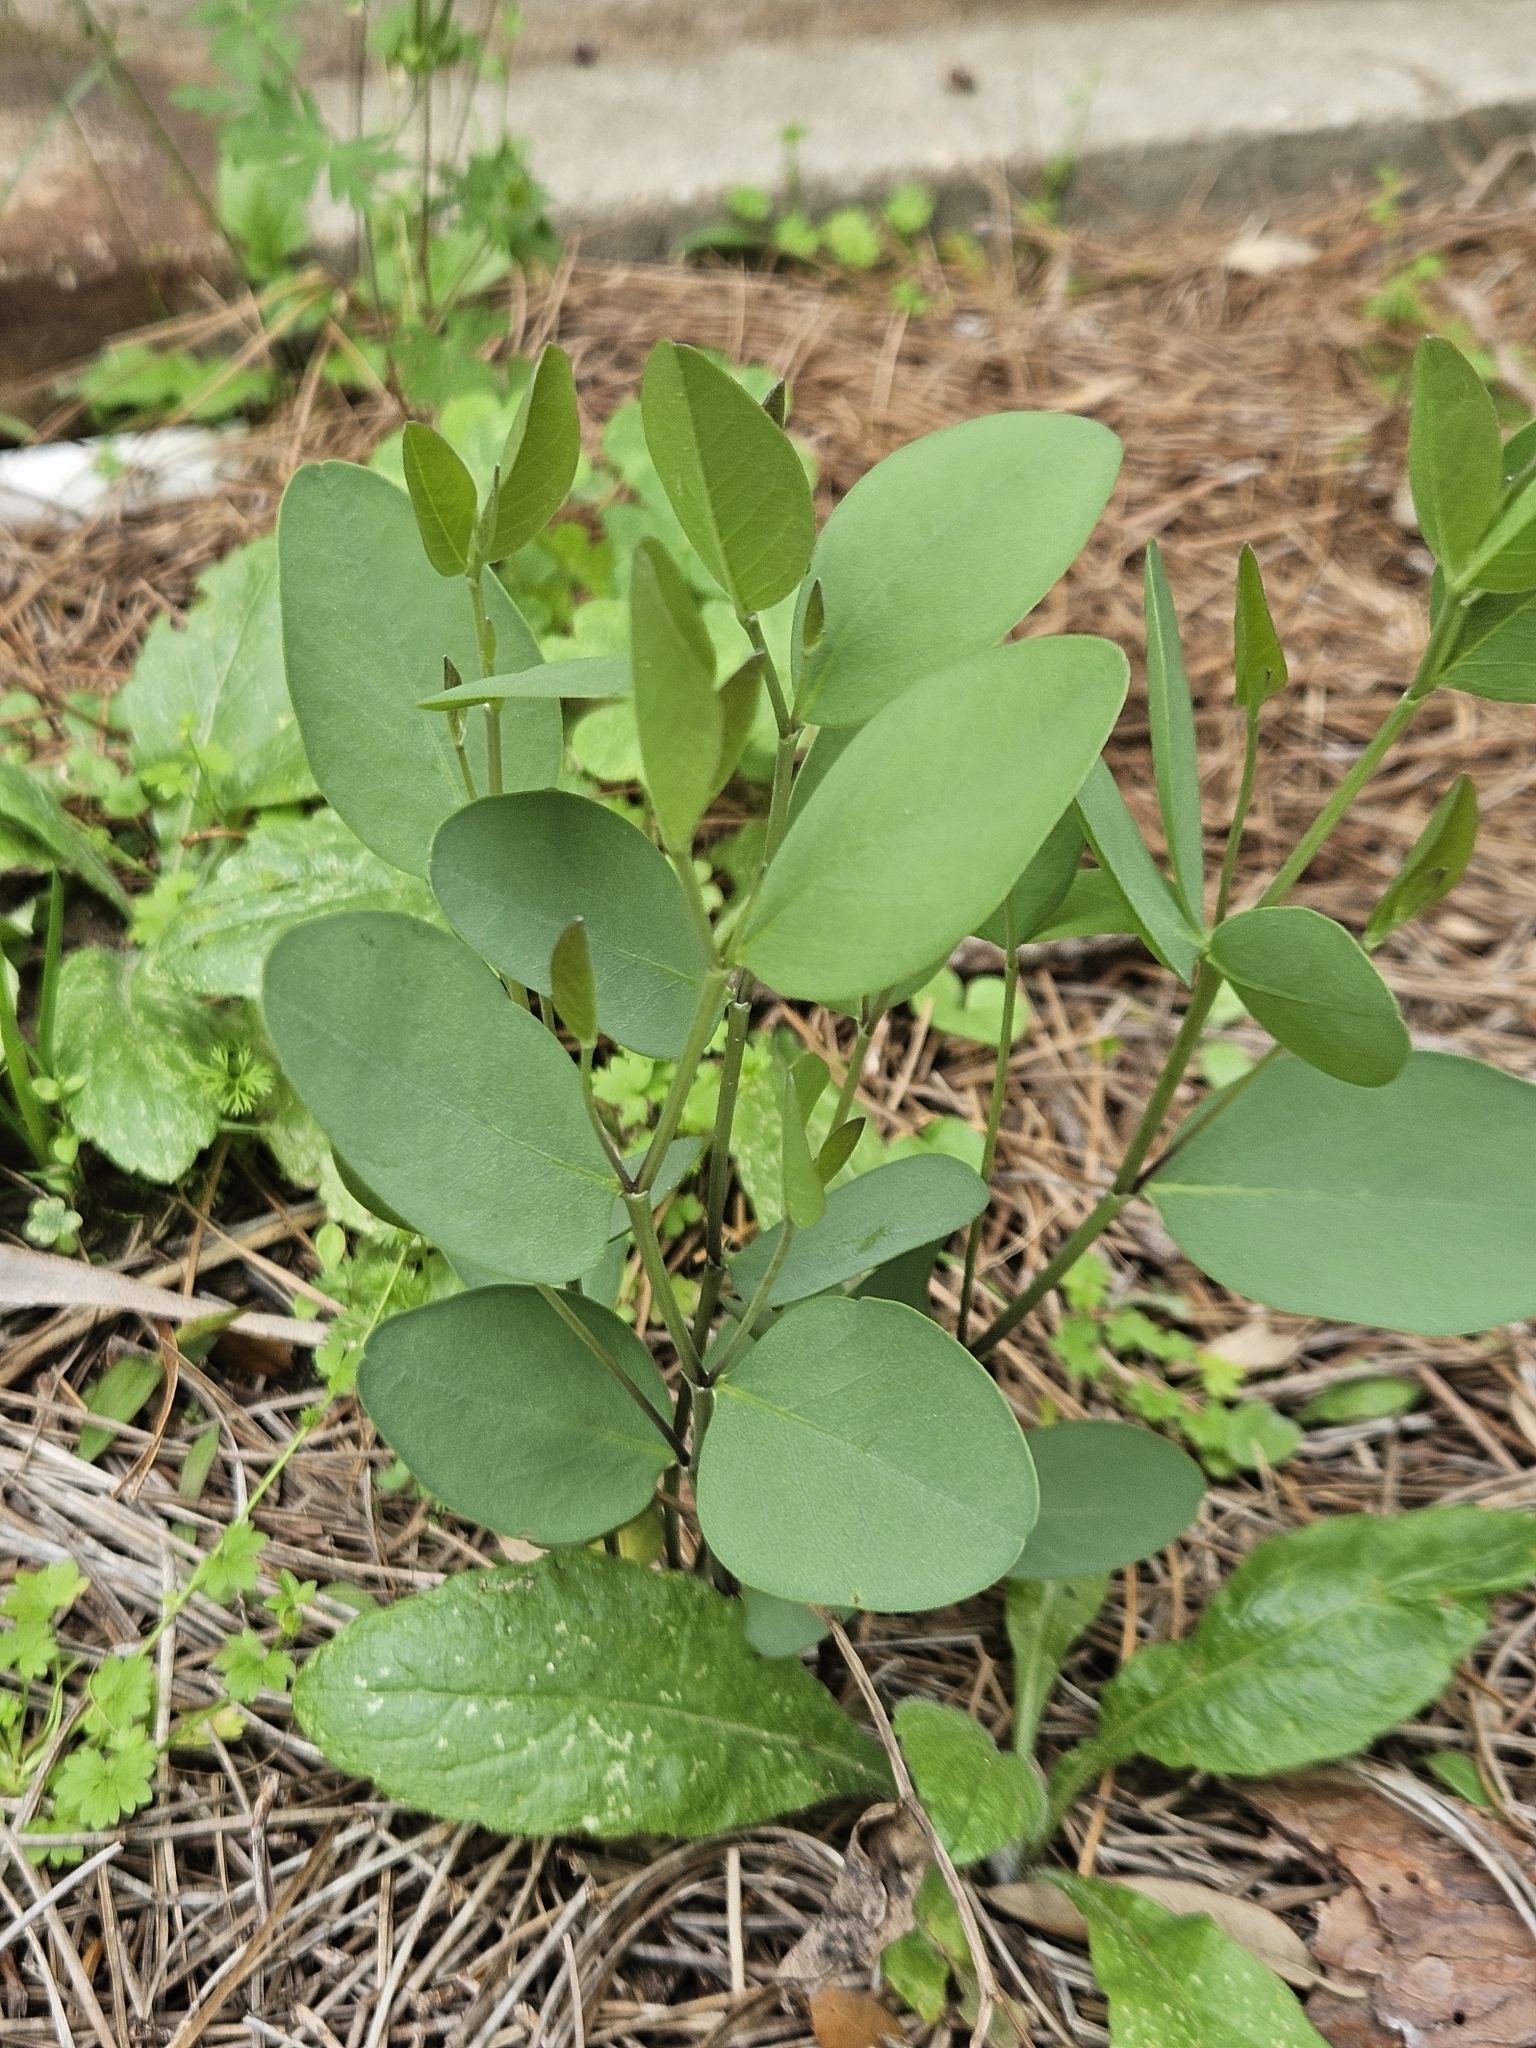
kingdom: Plantae
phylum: Tracheophyta
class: Magnoliopsida
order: Fabales
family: Fabaceae
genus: Baptisia
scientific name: Baptisia sphaerocarpa
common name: Round wild indigo
